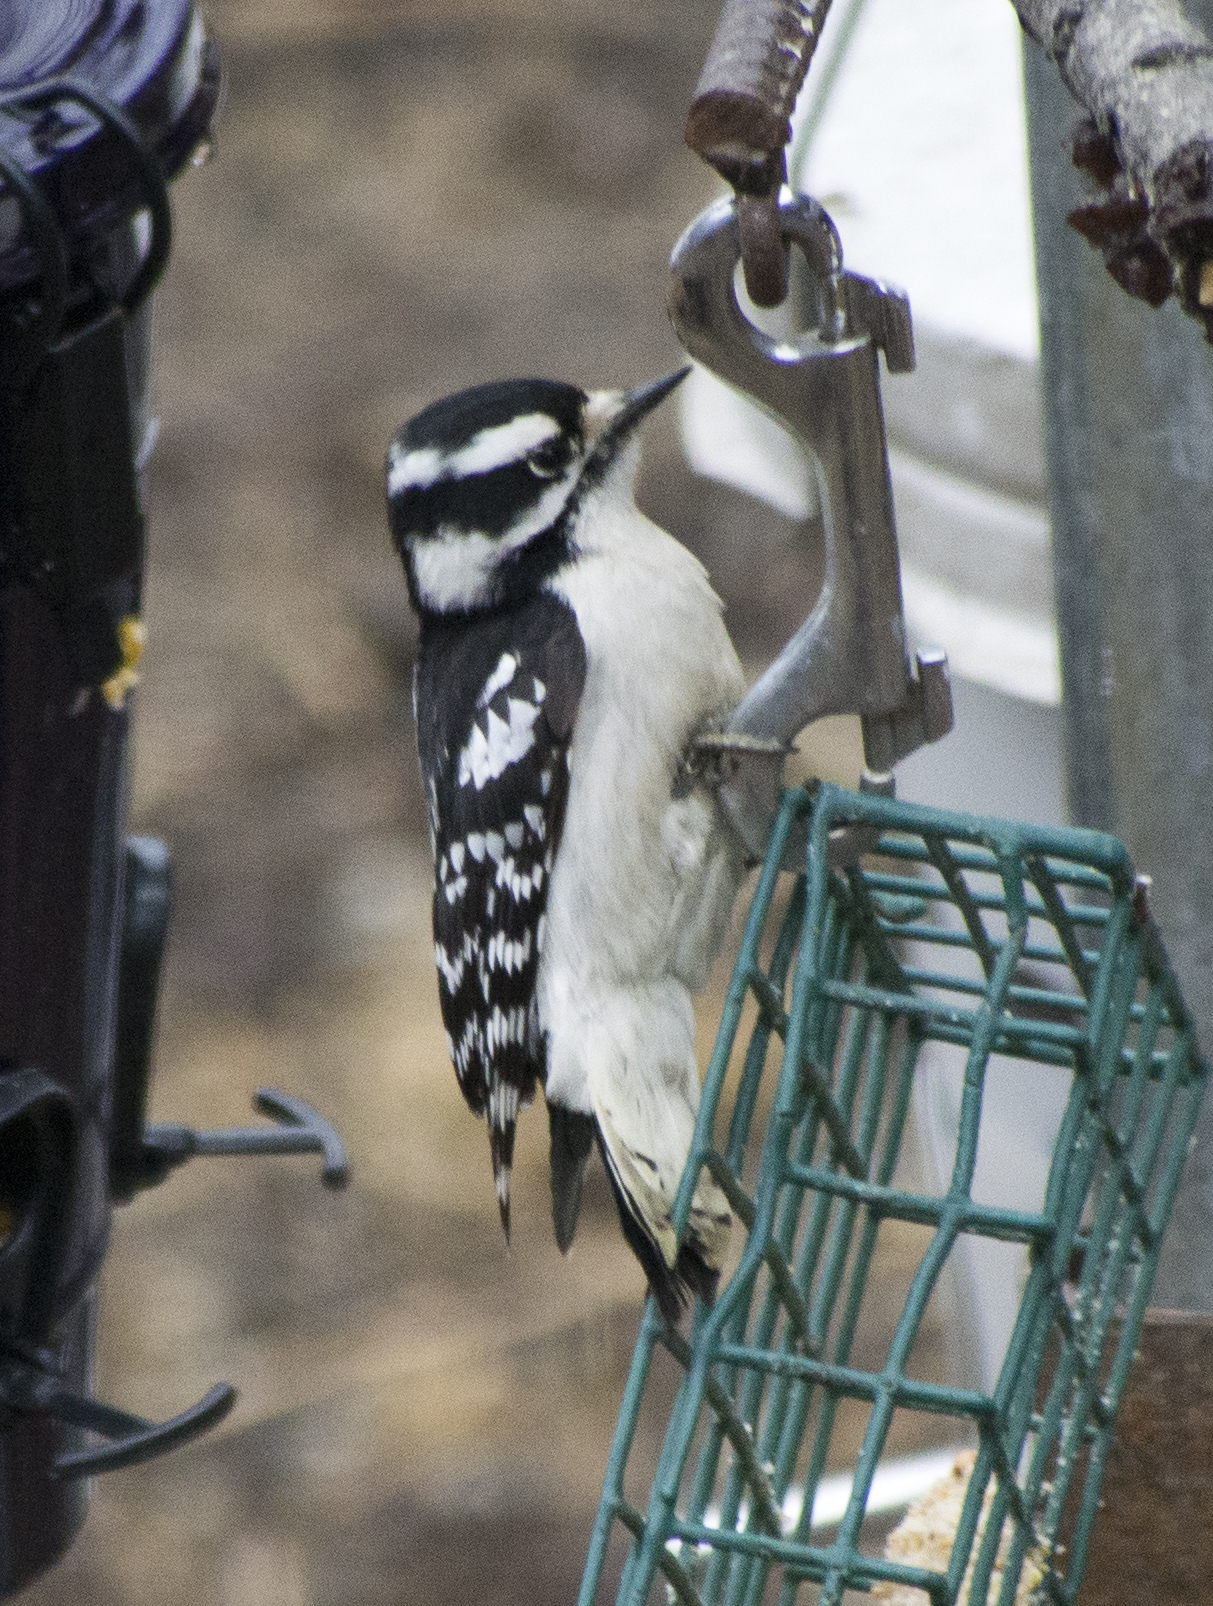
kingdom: Animalia
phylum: Chordata
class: Aves
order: Piciformes
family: Picidae
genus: Dryobates
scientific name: Dryobates pubescens
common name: Downy woodpecker
